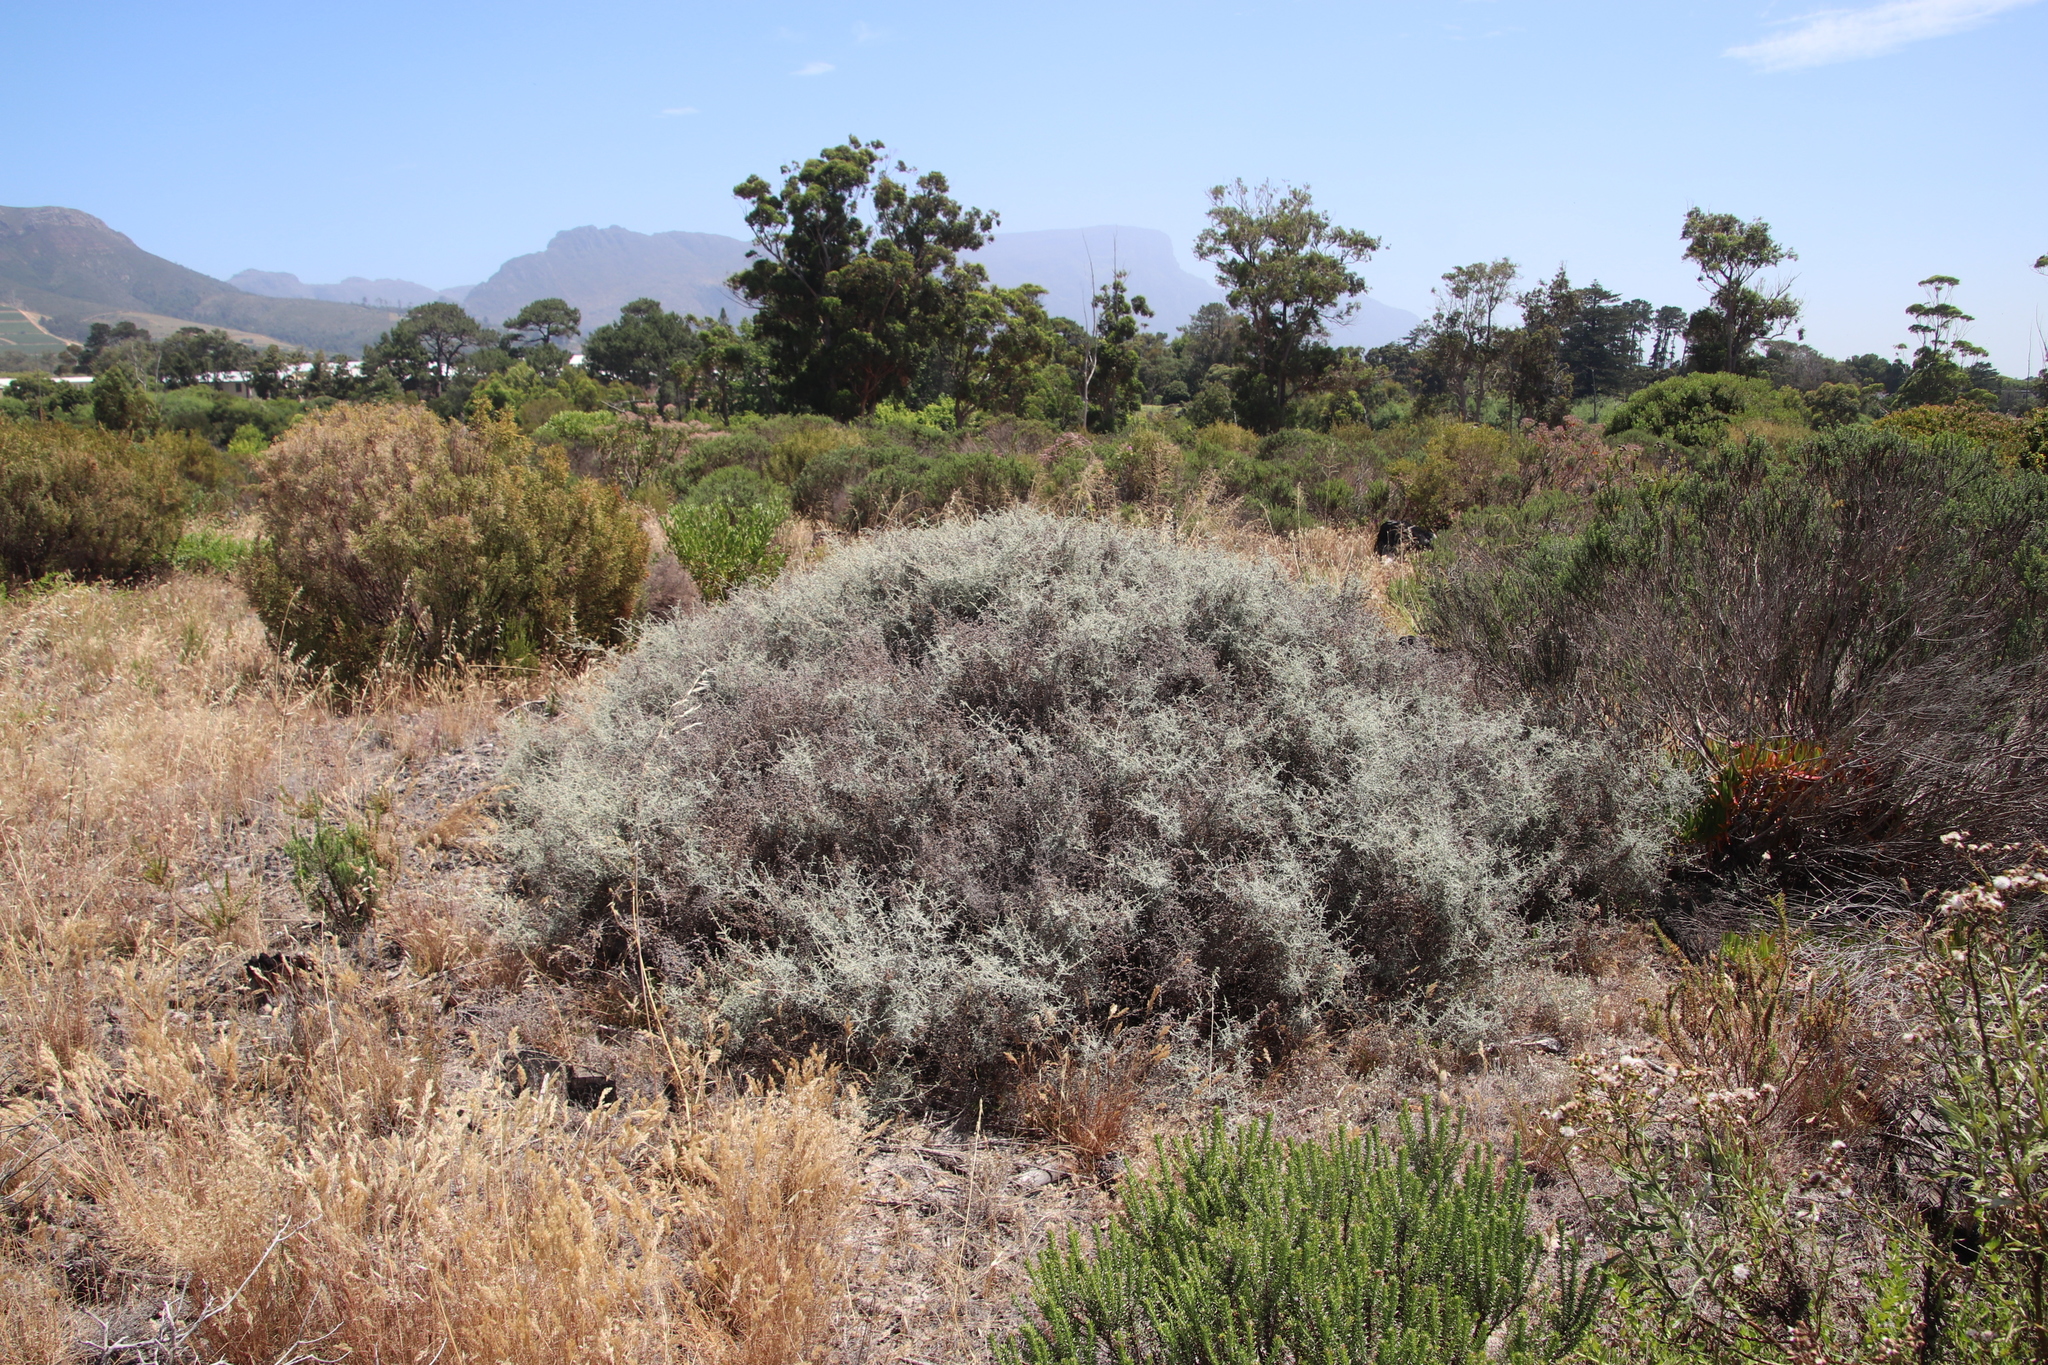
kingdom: Plantae
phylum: Tracheophyta
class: Magnoliopsida
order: Asterales
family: Asteraceae
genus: Seriphium
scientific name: Seriphium plumosum
